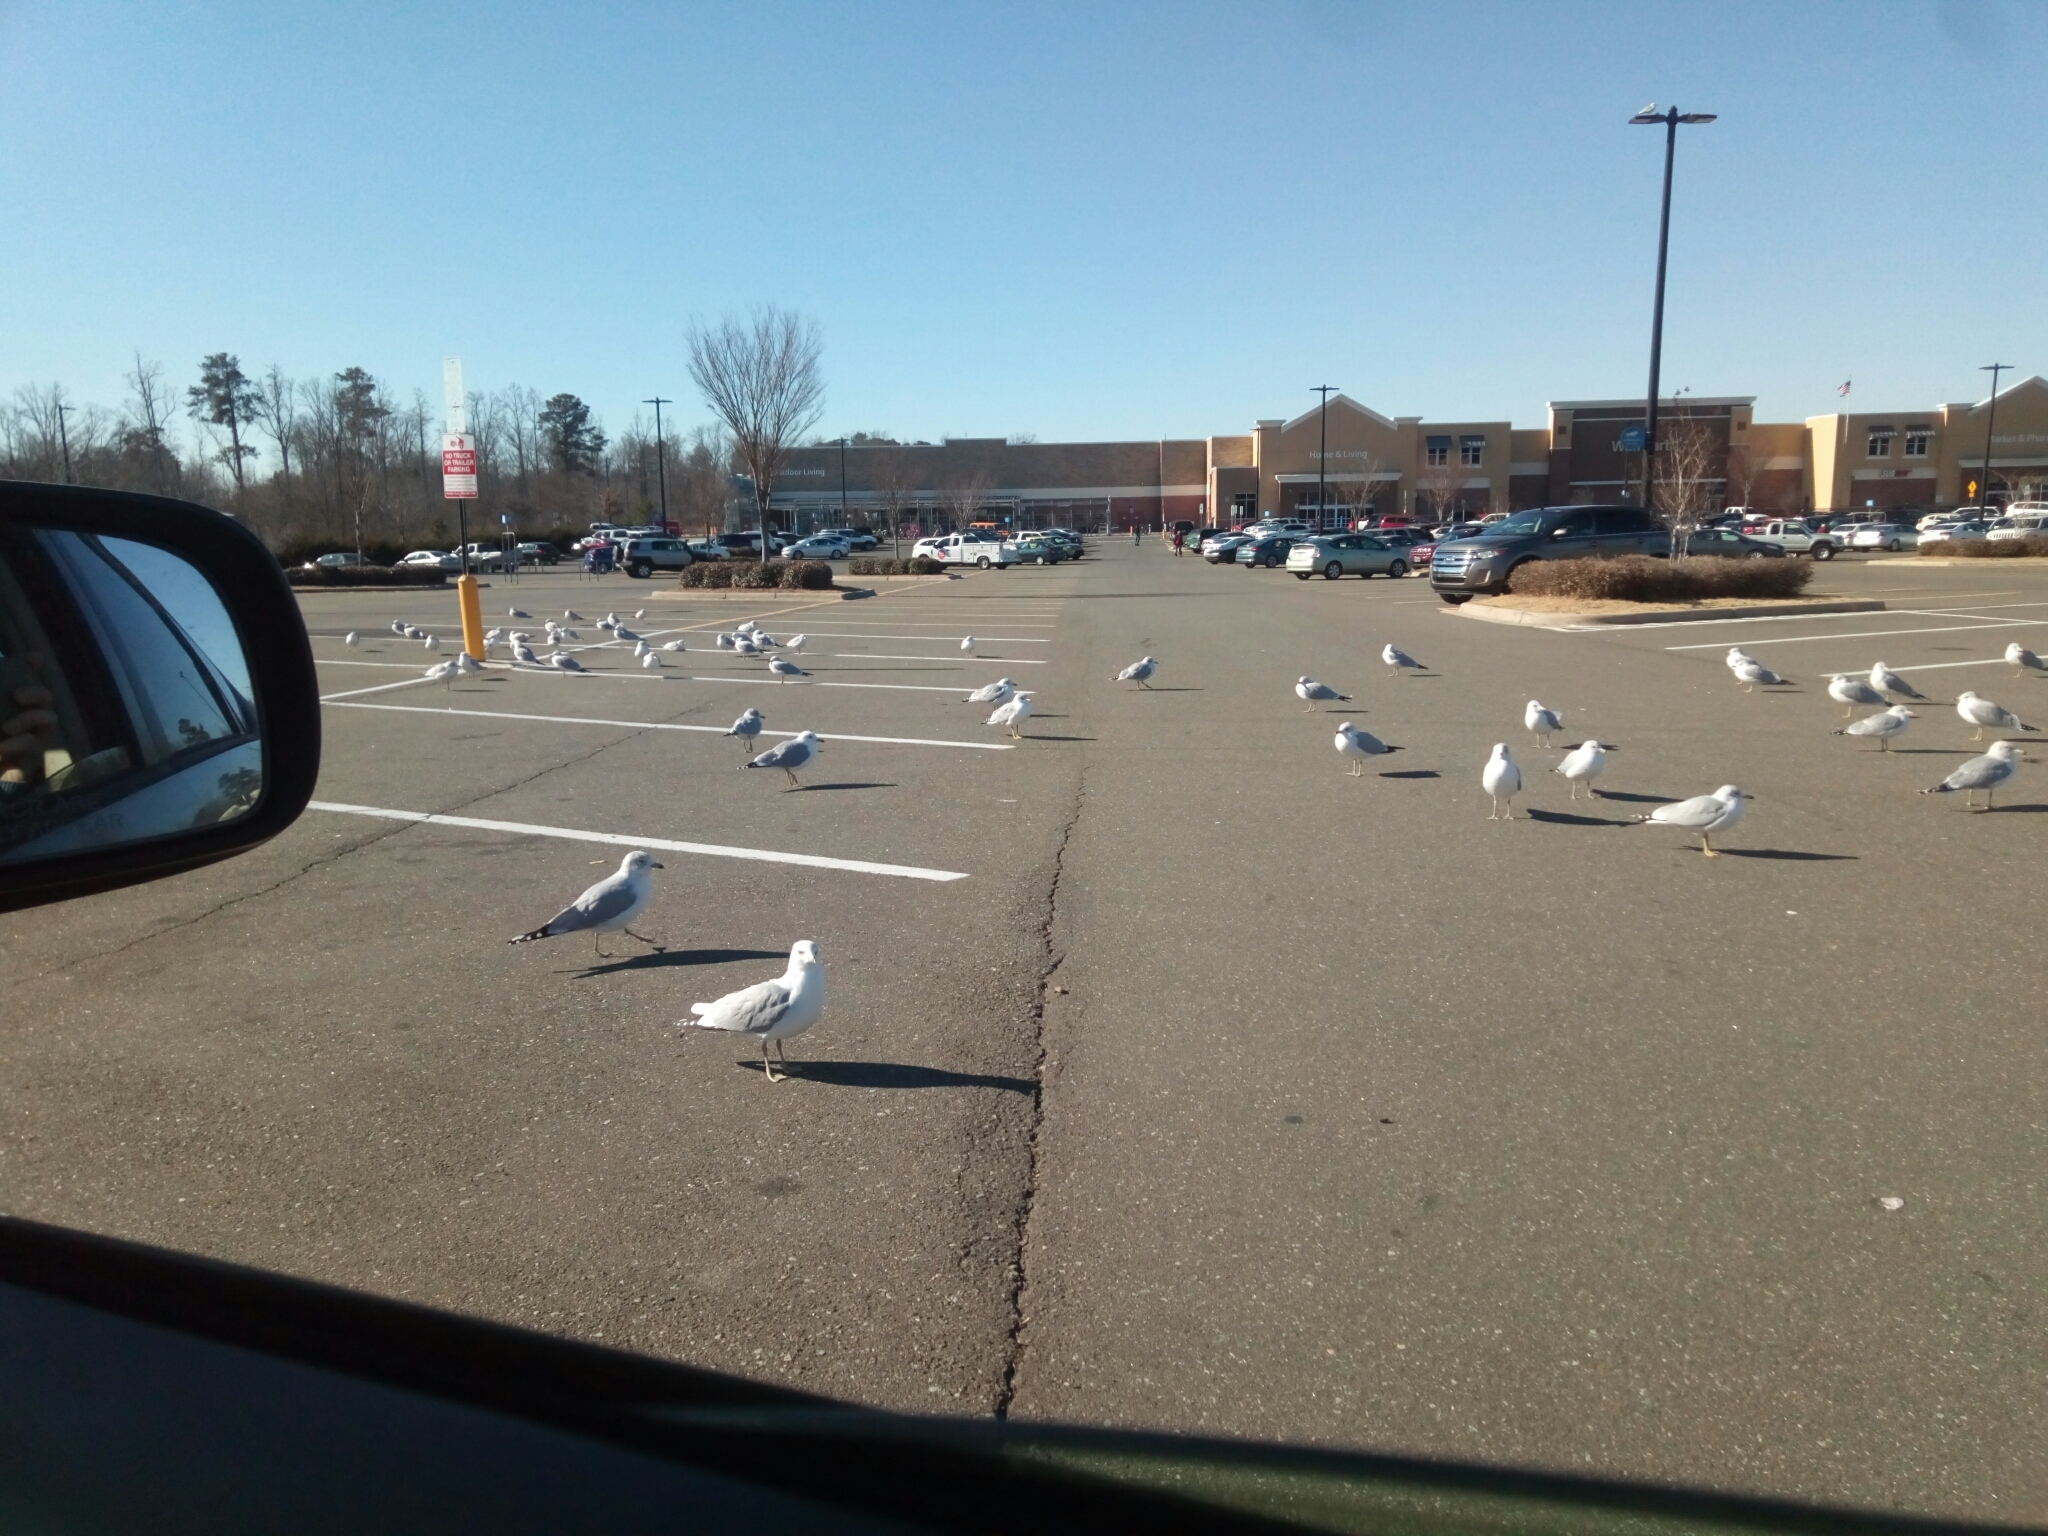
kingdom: Animalia
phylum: Chordata
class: Aves
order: Charadriiformes
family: Laridae
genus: Larus
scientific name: Larus delawarensis
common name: Ring-billed gull
